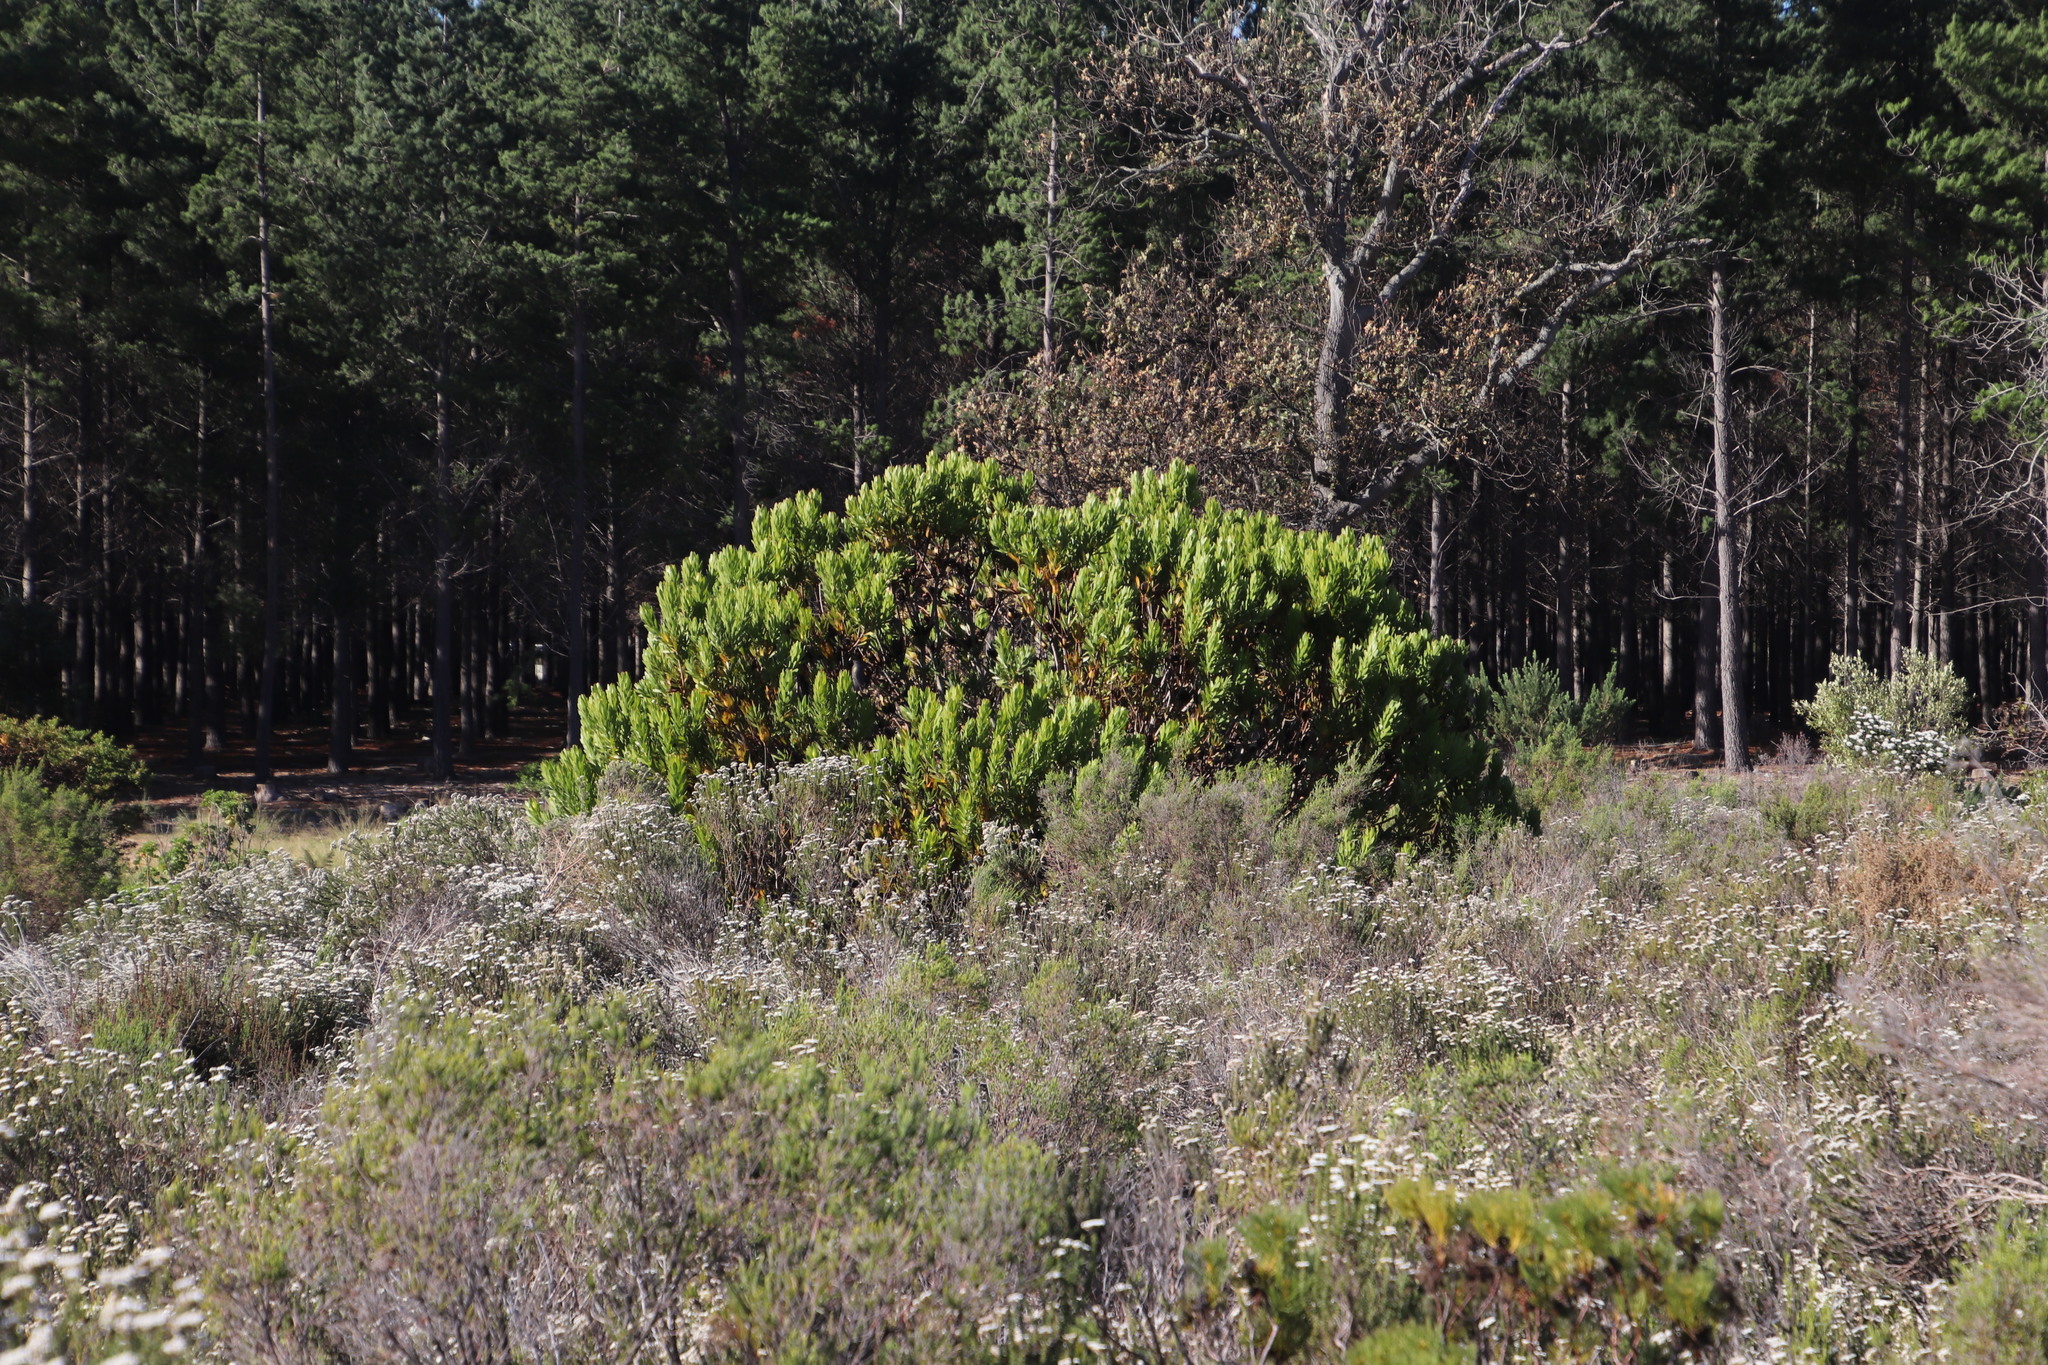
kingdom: Plantae
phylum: Tracheophyta
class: Magnoliopsida
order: Proteales
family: Proteaceae
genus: Leucadendron
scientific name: Leucadendron laureolum
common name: Golden sunshinebush
